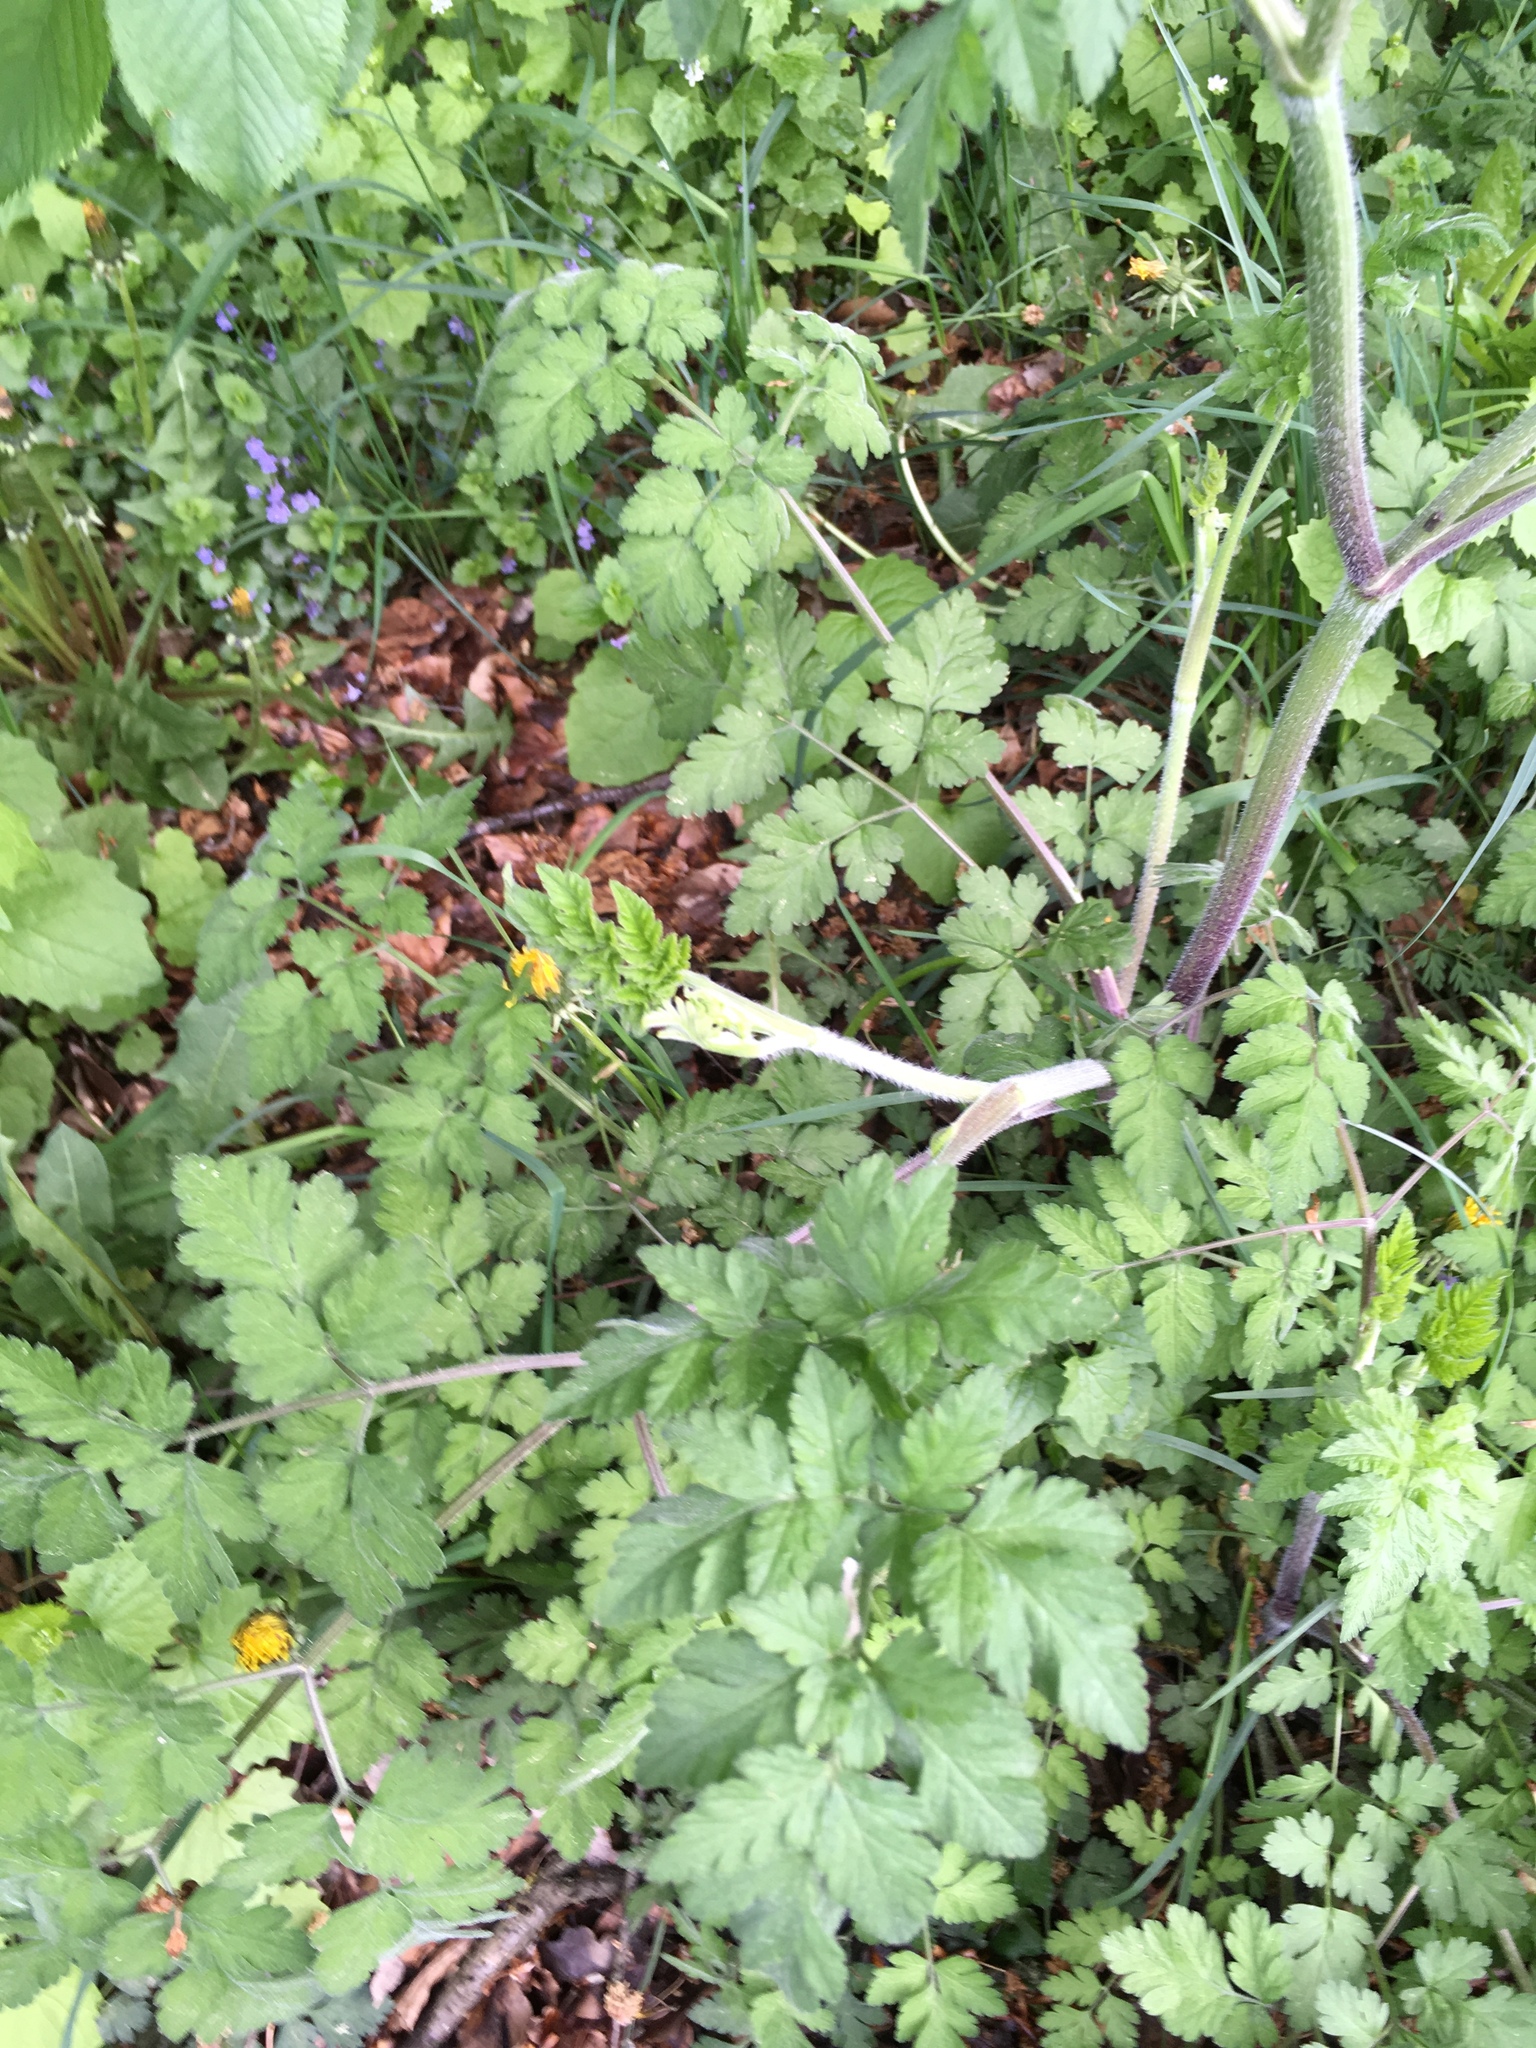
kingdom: Plantae
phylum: Tracheophyta
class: Magnoliopsida
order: Apiales
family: Apiaceae
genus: Chaerophyllum
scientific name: Chaerophyllum temulum
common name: Rough chervil
